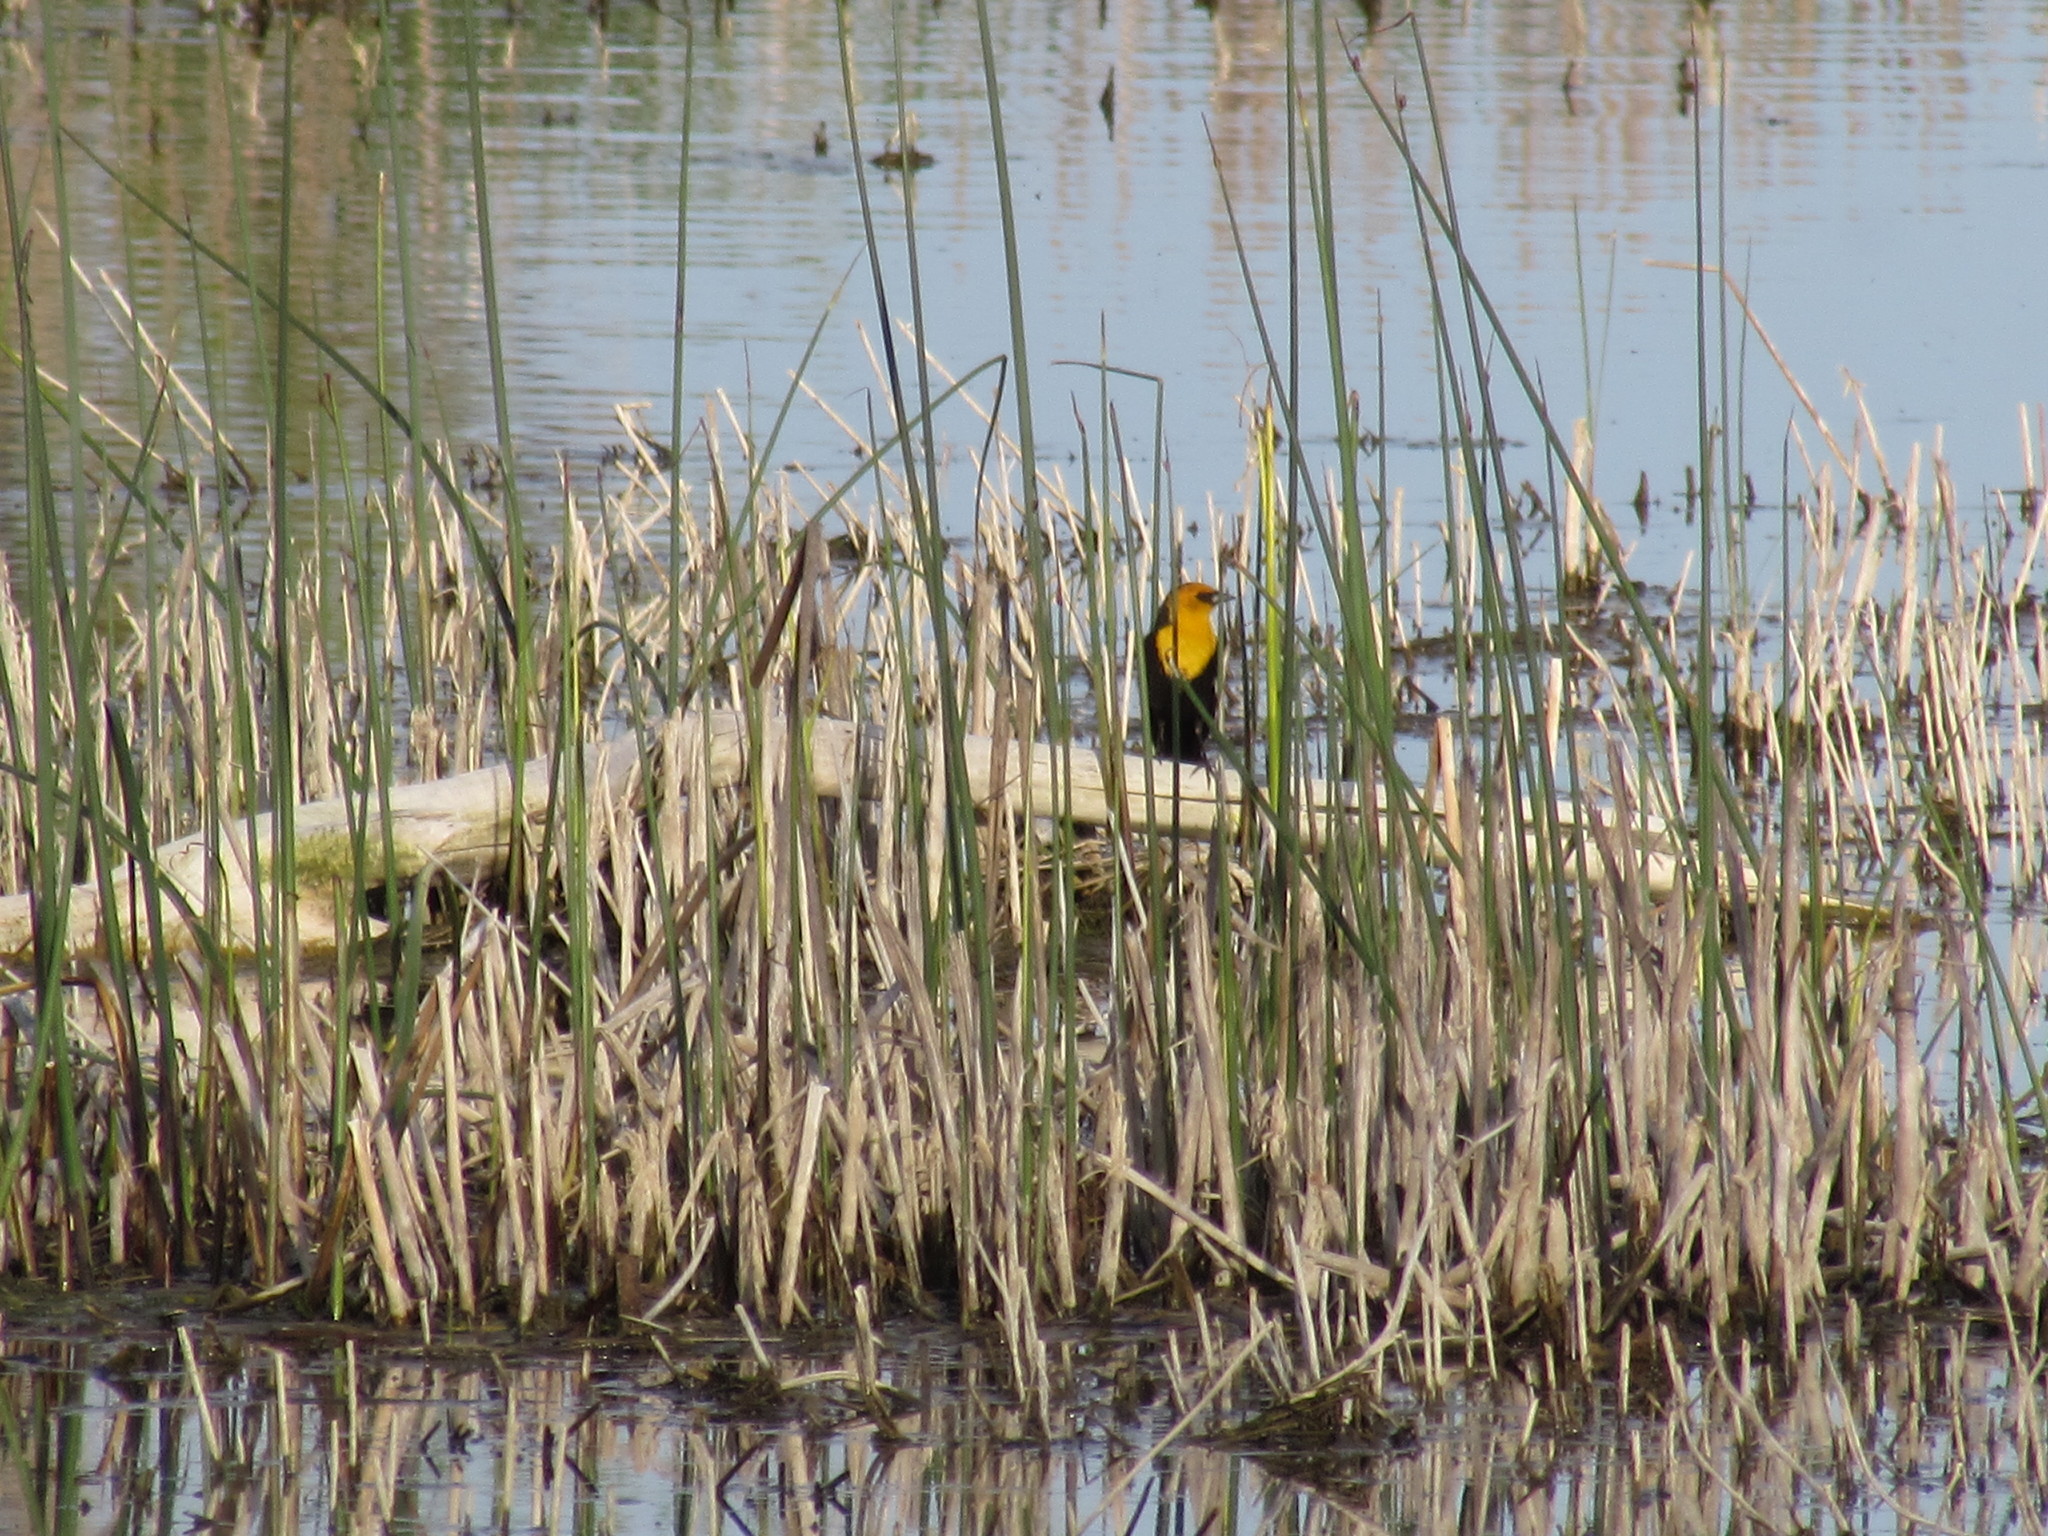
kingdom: Animalia
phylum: Chordata
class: Aves
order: Passeriformes
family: Icteridae
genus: Xanthocephalus
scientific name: Xanthocephalus xanthocephalus
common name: Yellow-headed blackbird
